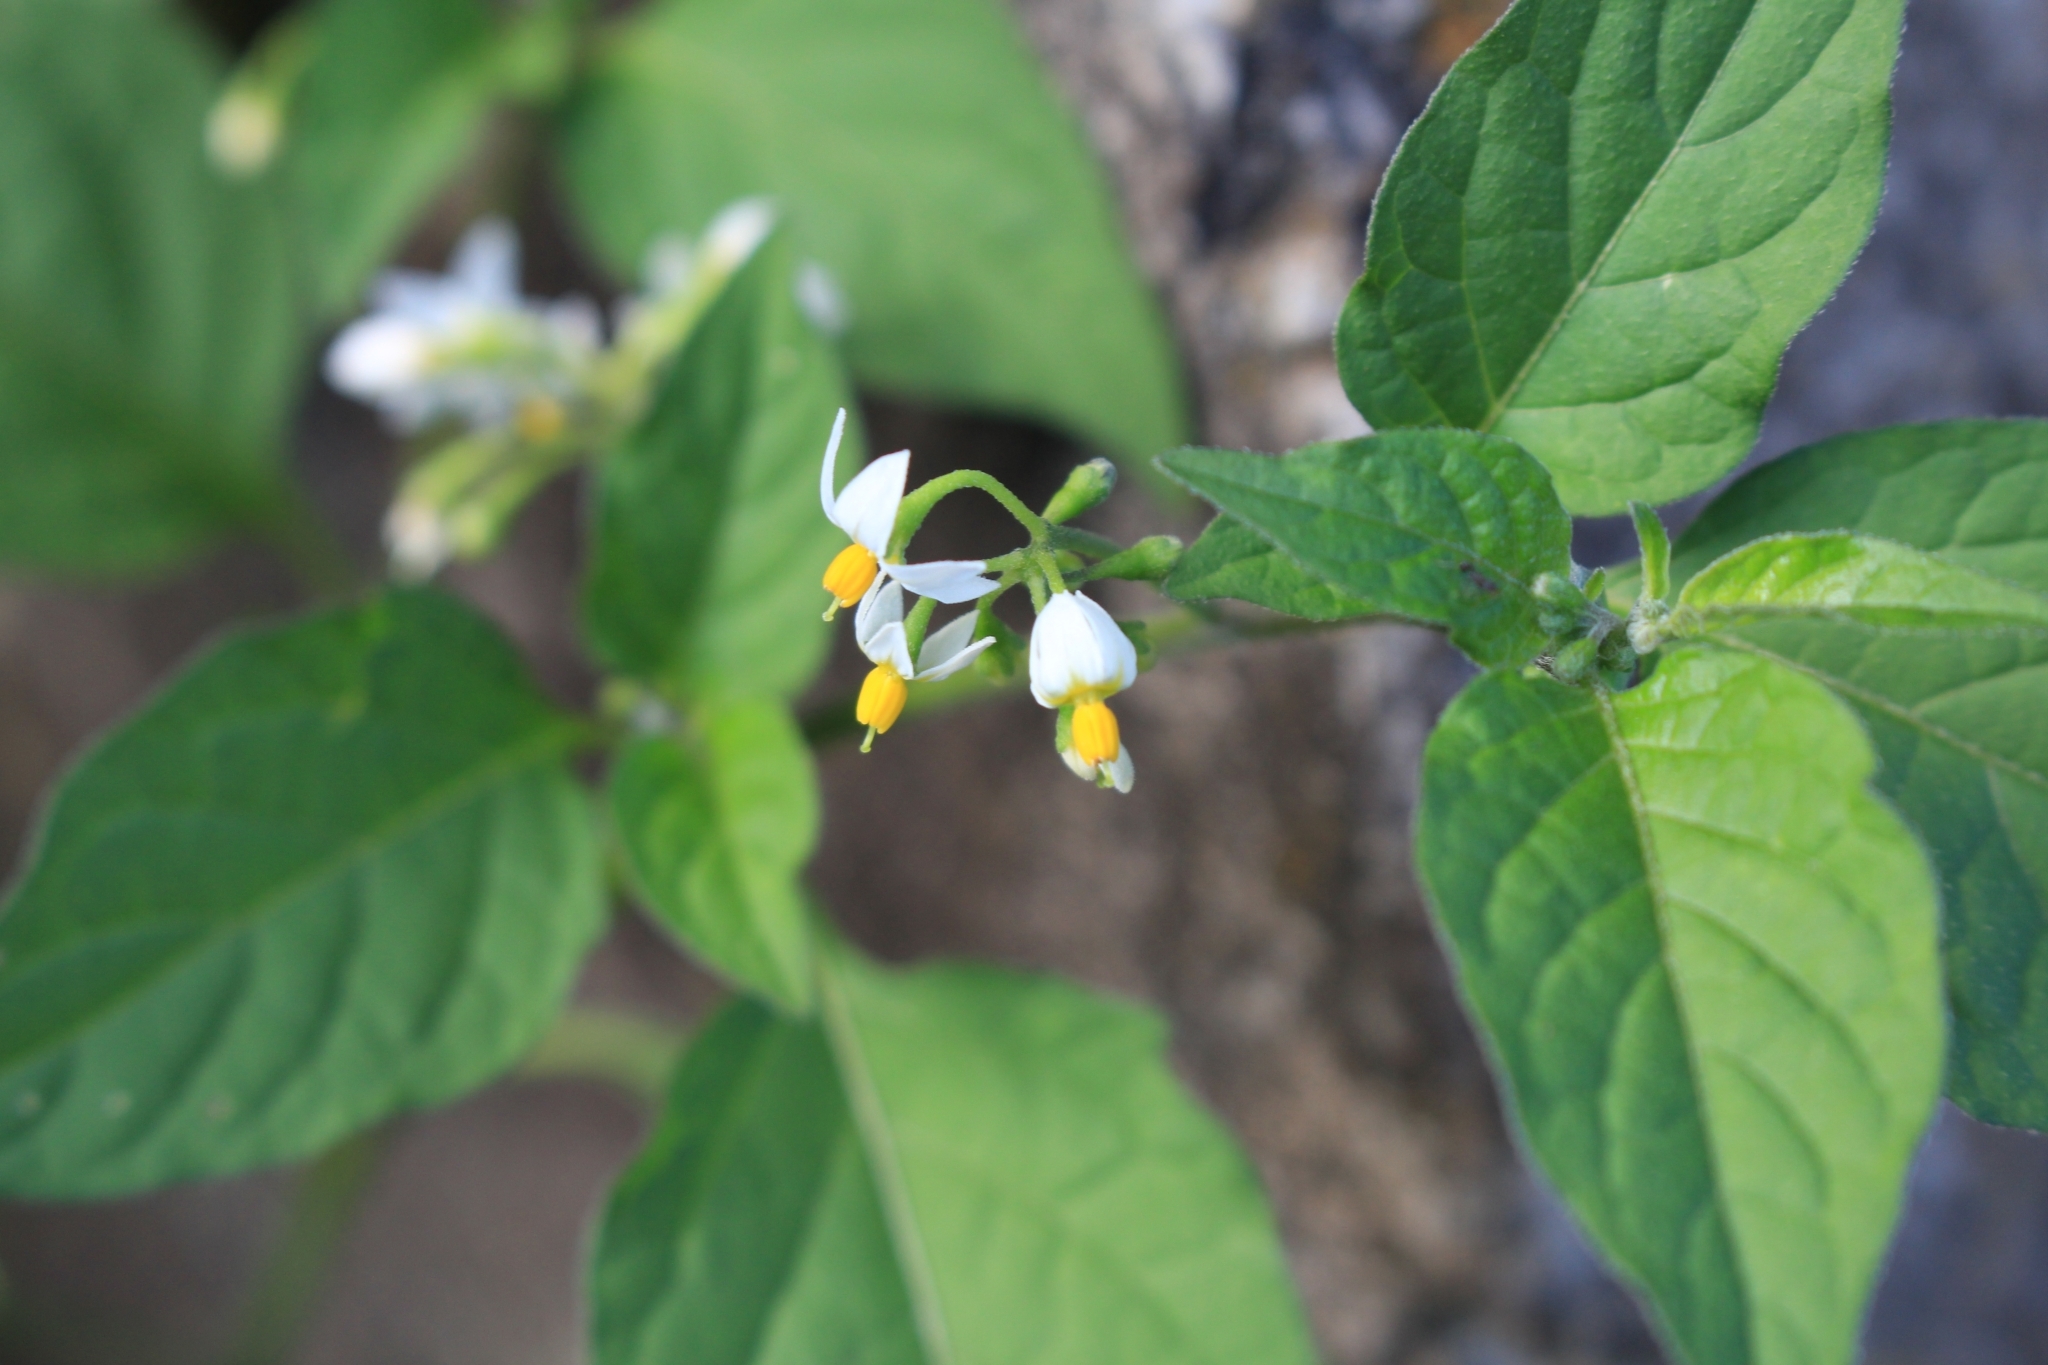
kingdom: Plantae
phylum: Tracheophyta
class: Magnoliopsida
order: Solanales
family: Solanaceae
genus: Solanum
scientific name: Solanum americanum
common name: American black nightshade
